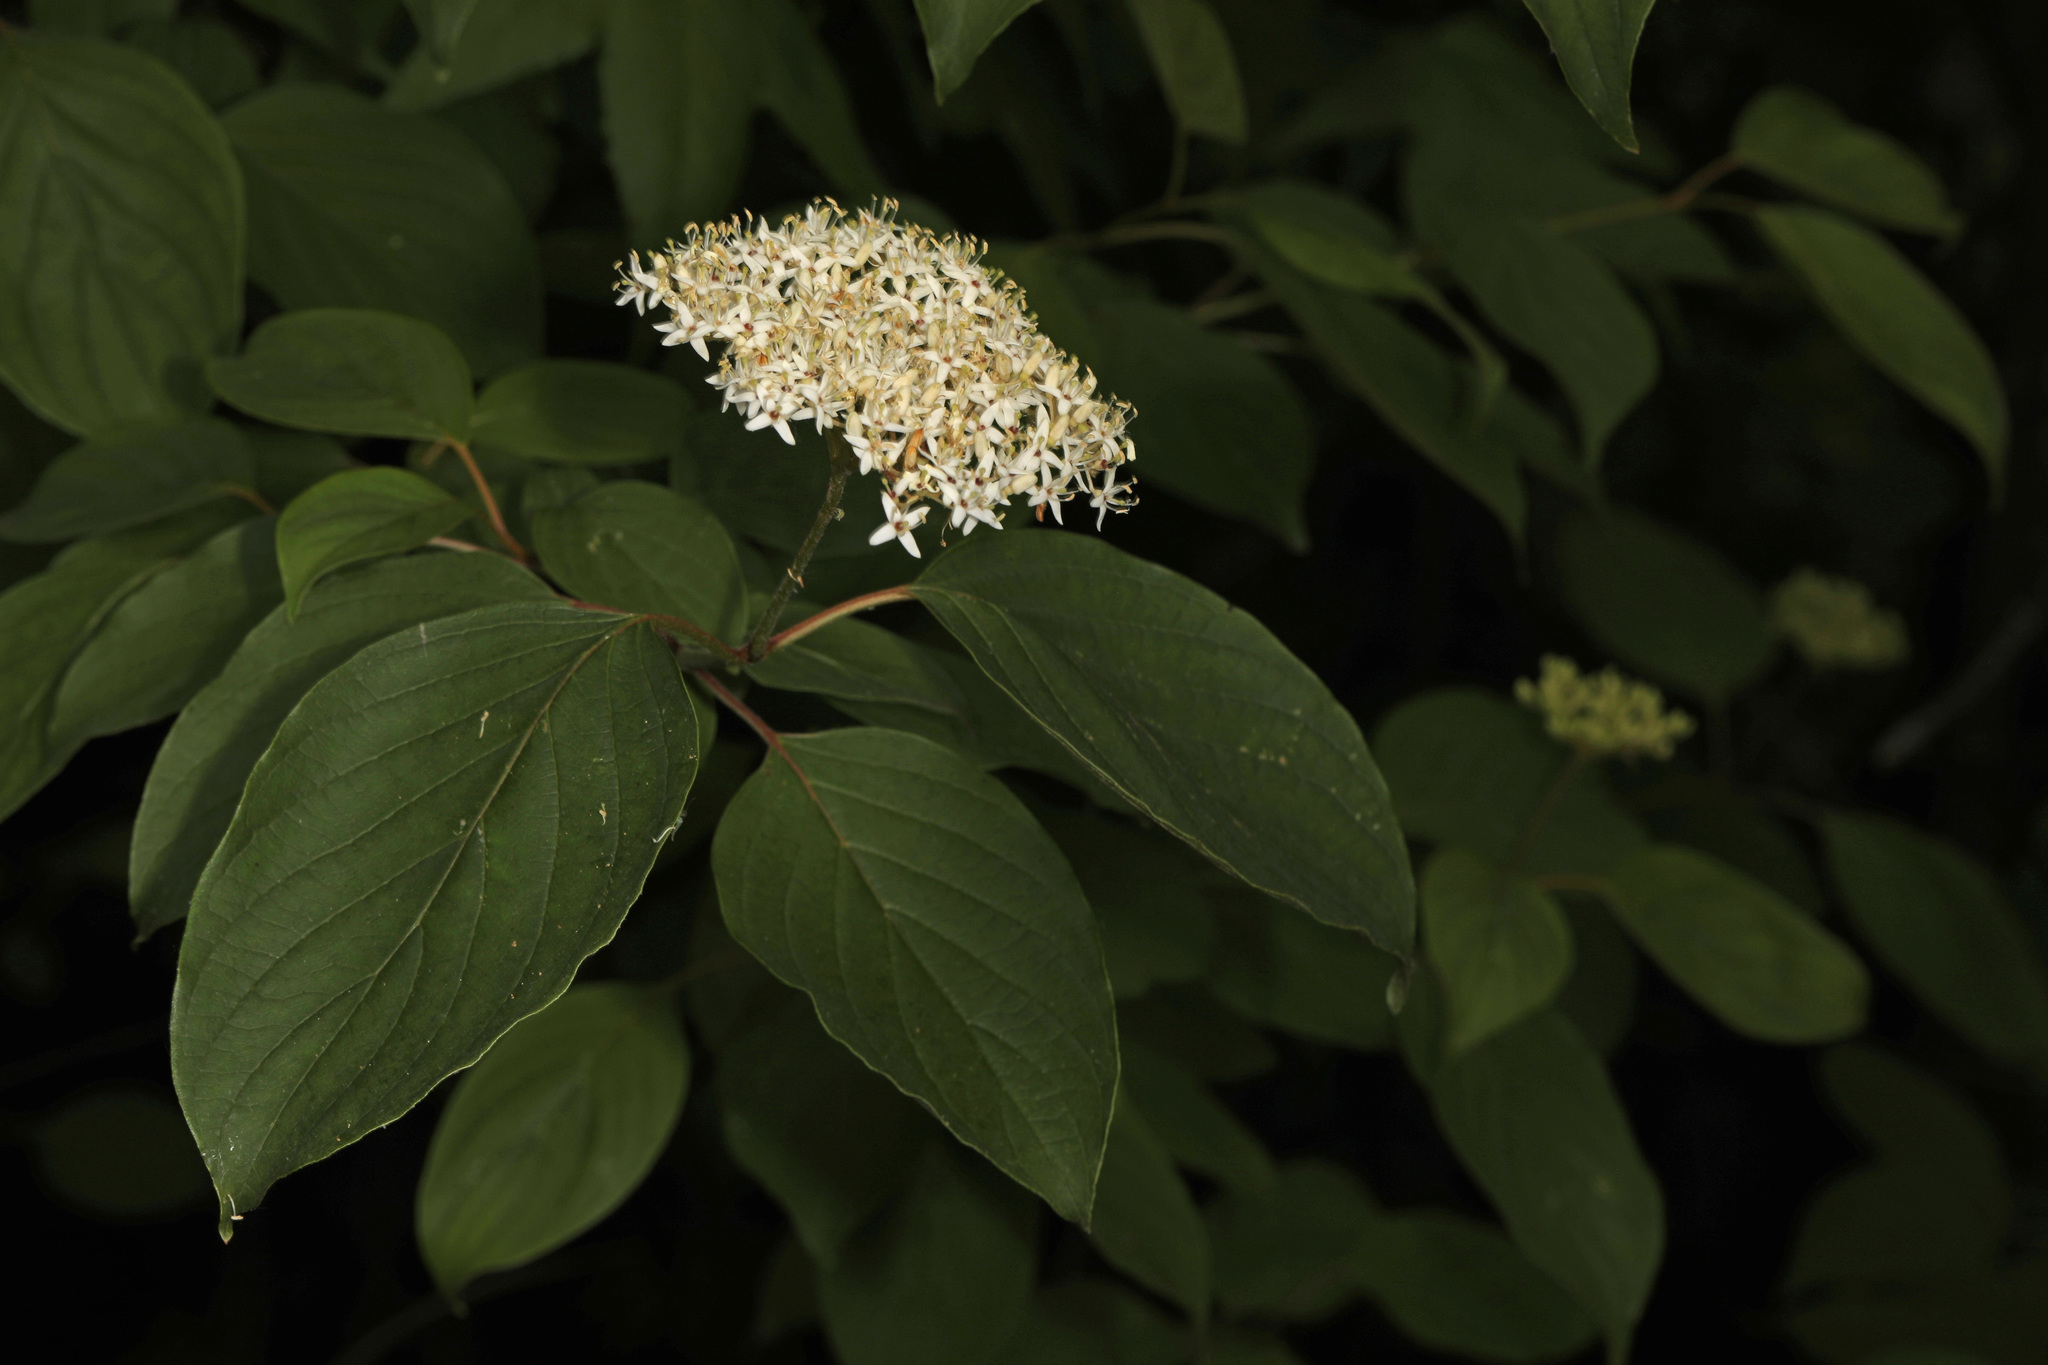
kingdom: Plantae
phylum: Tracheophyta
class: Magnoliopsida
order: Cornales
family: Cornaceae
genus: Cornus
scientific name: Cornus amomum
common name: Silky dogwood
